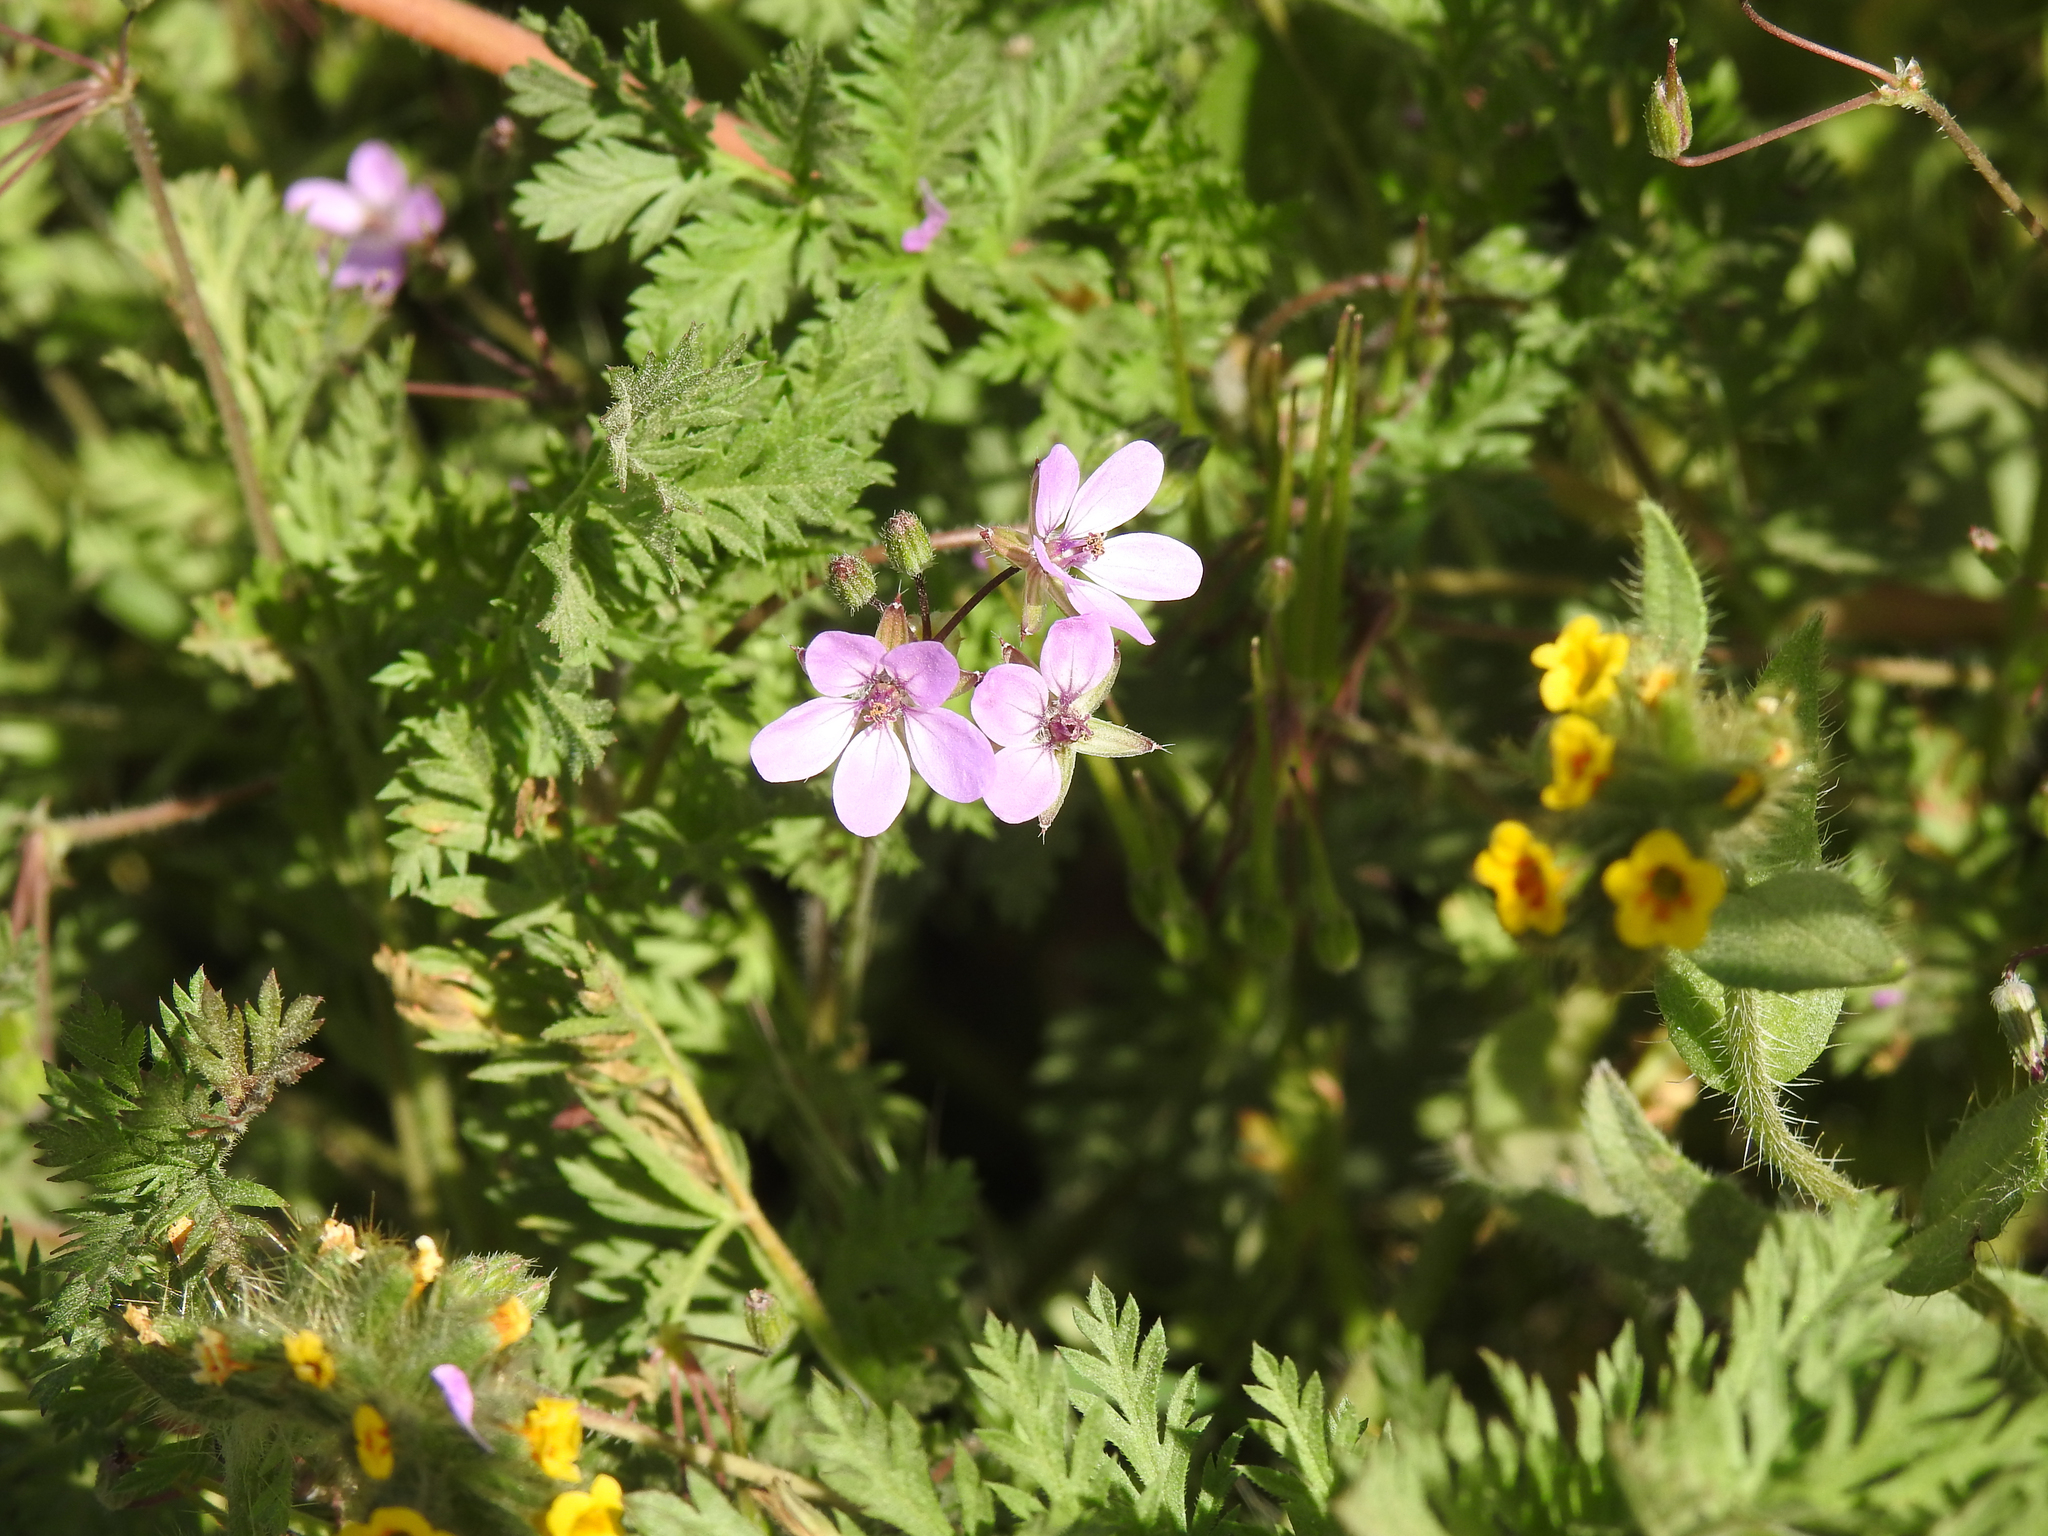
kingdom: Plantae
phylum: Tracheophyta
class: Magnoliopsida
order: Geraniales
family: Geraniaceae
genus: Erodium
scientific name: Erodium cicutarium
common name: Common stork's-bill
